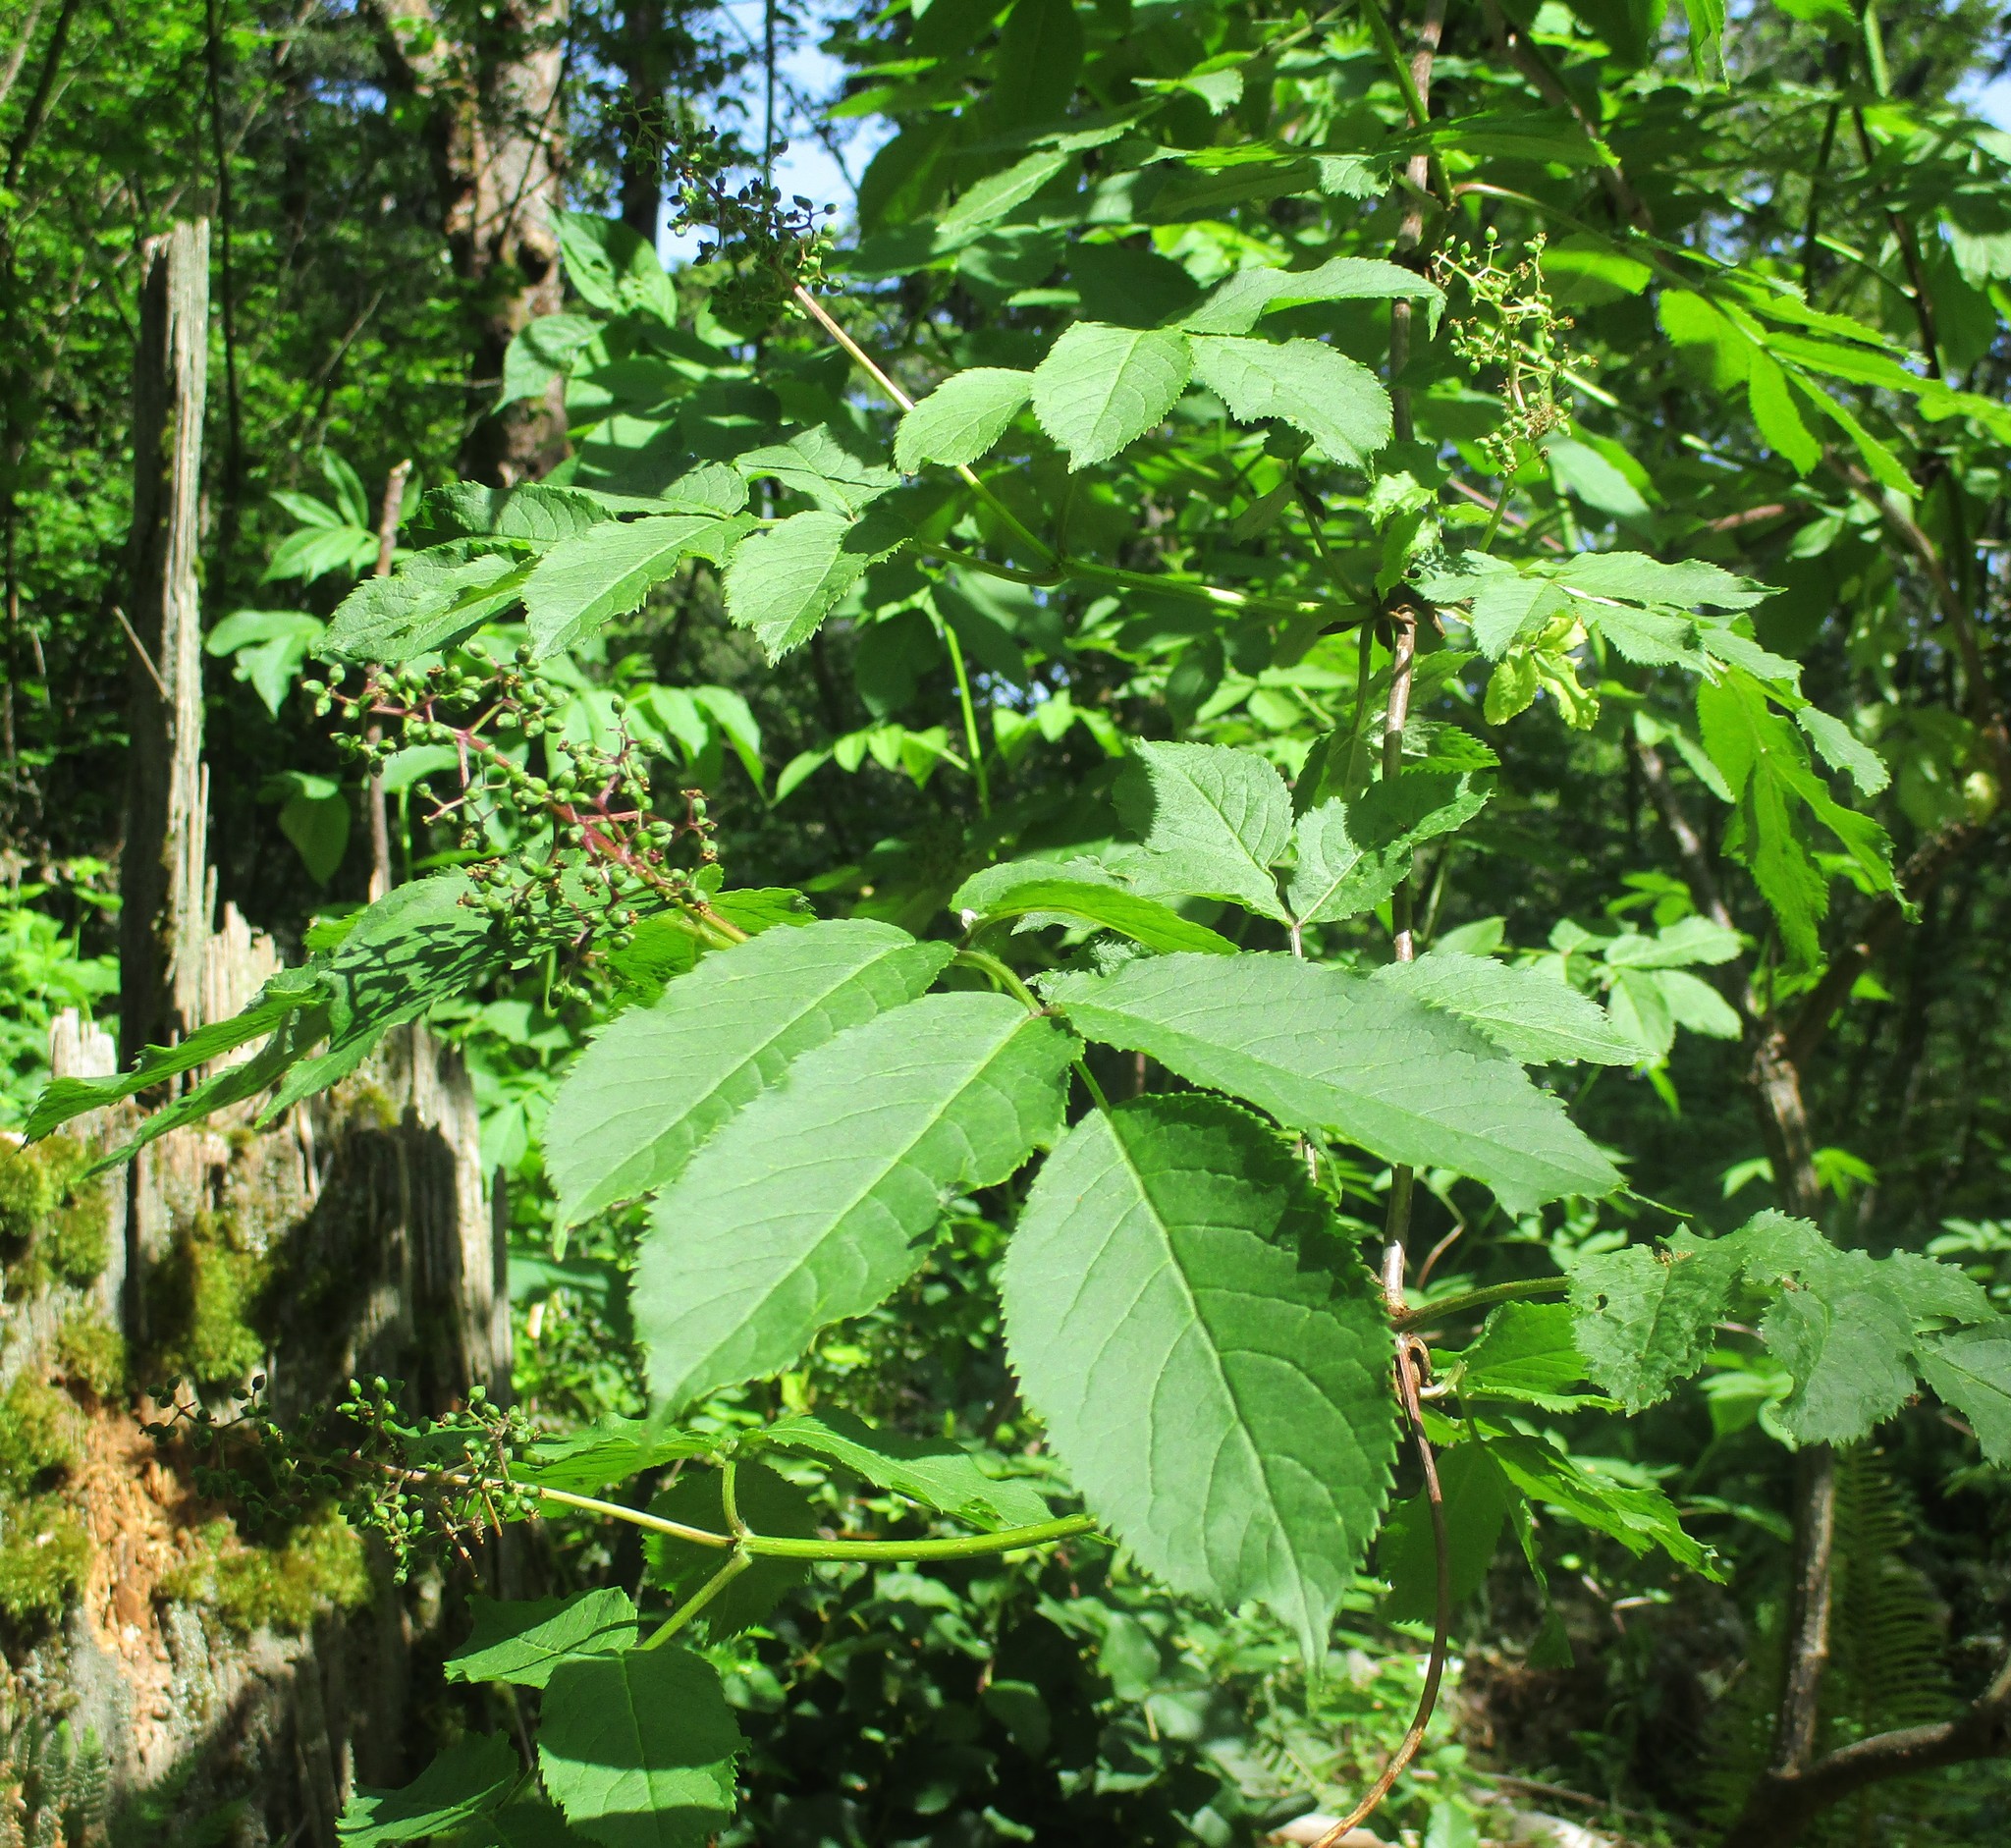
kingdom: Plantae
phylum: Tracheophyta
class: Magnoliopsida
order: Dipsacales
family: Viburnaceae
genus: Sambucus
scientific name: Sambucus racemosa
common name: Red-berried elder
